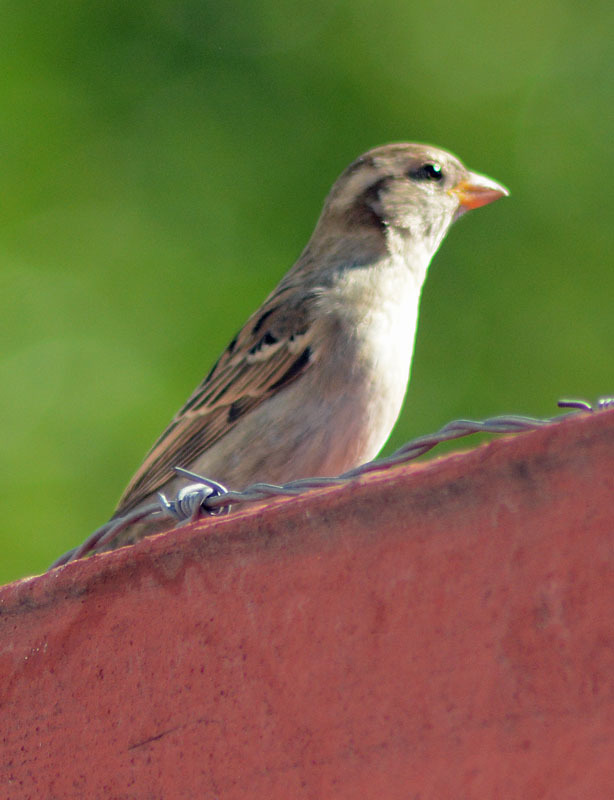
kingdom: Animalia
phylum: Chordata
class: Aves
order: Passeriformes
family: Passeridae
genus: Passer
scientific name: Passer domesticus
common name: House sparrow
